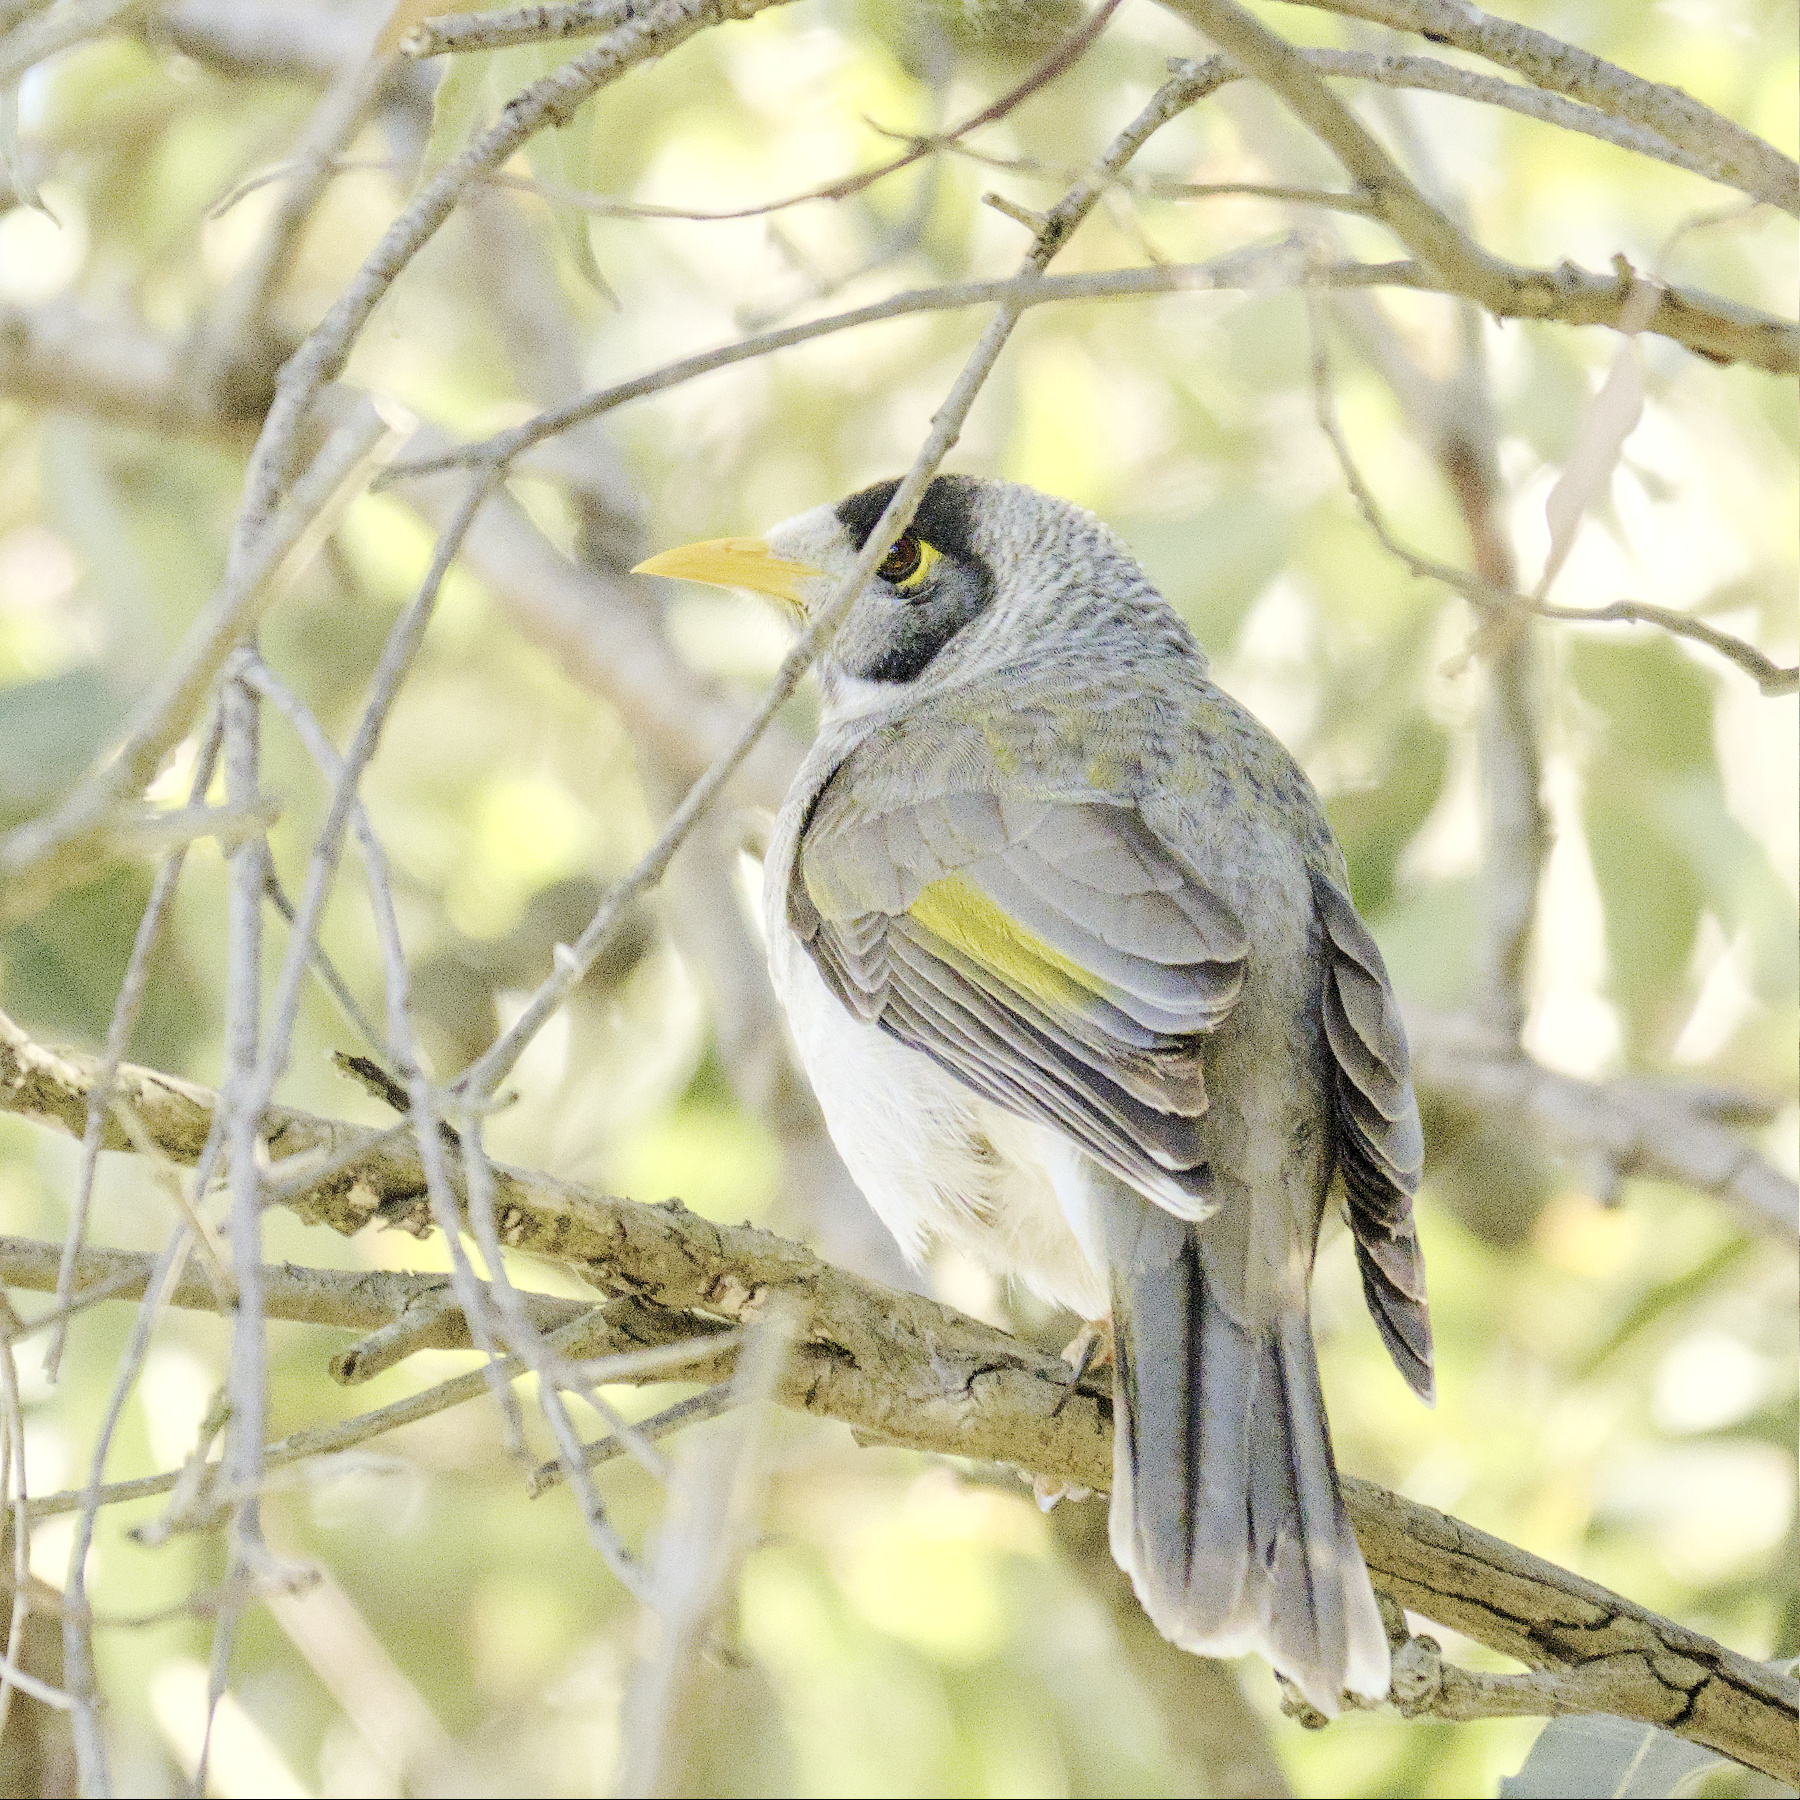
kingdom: Animalia
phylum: Chordata
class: Aves
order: Passeriformes
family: Meliphagidae
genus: Manorina
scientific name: Manorina melanocephala
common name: Noisy miner
